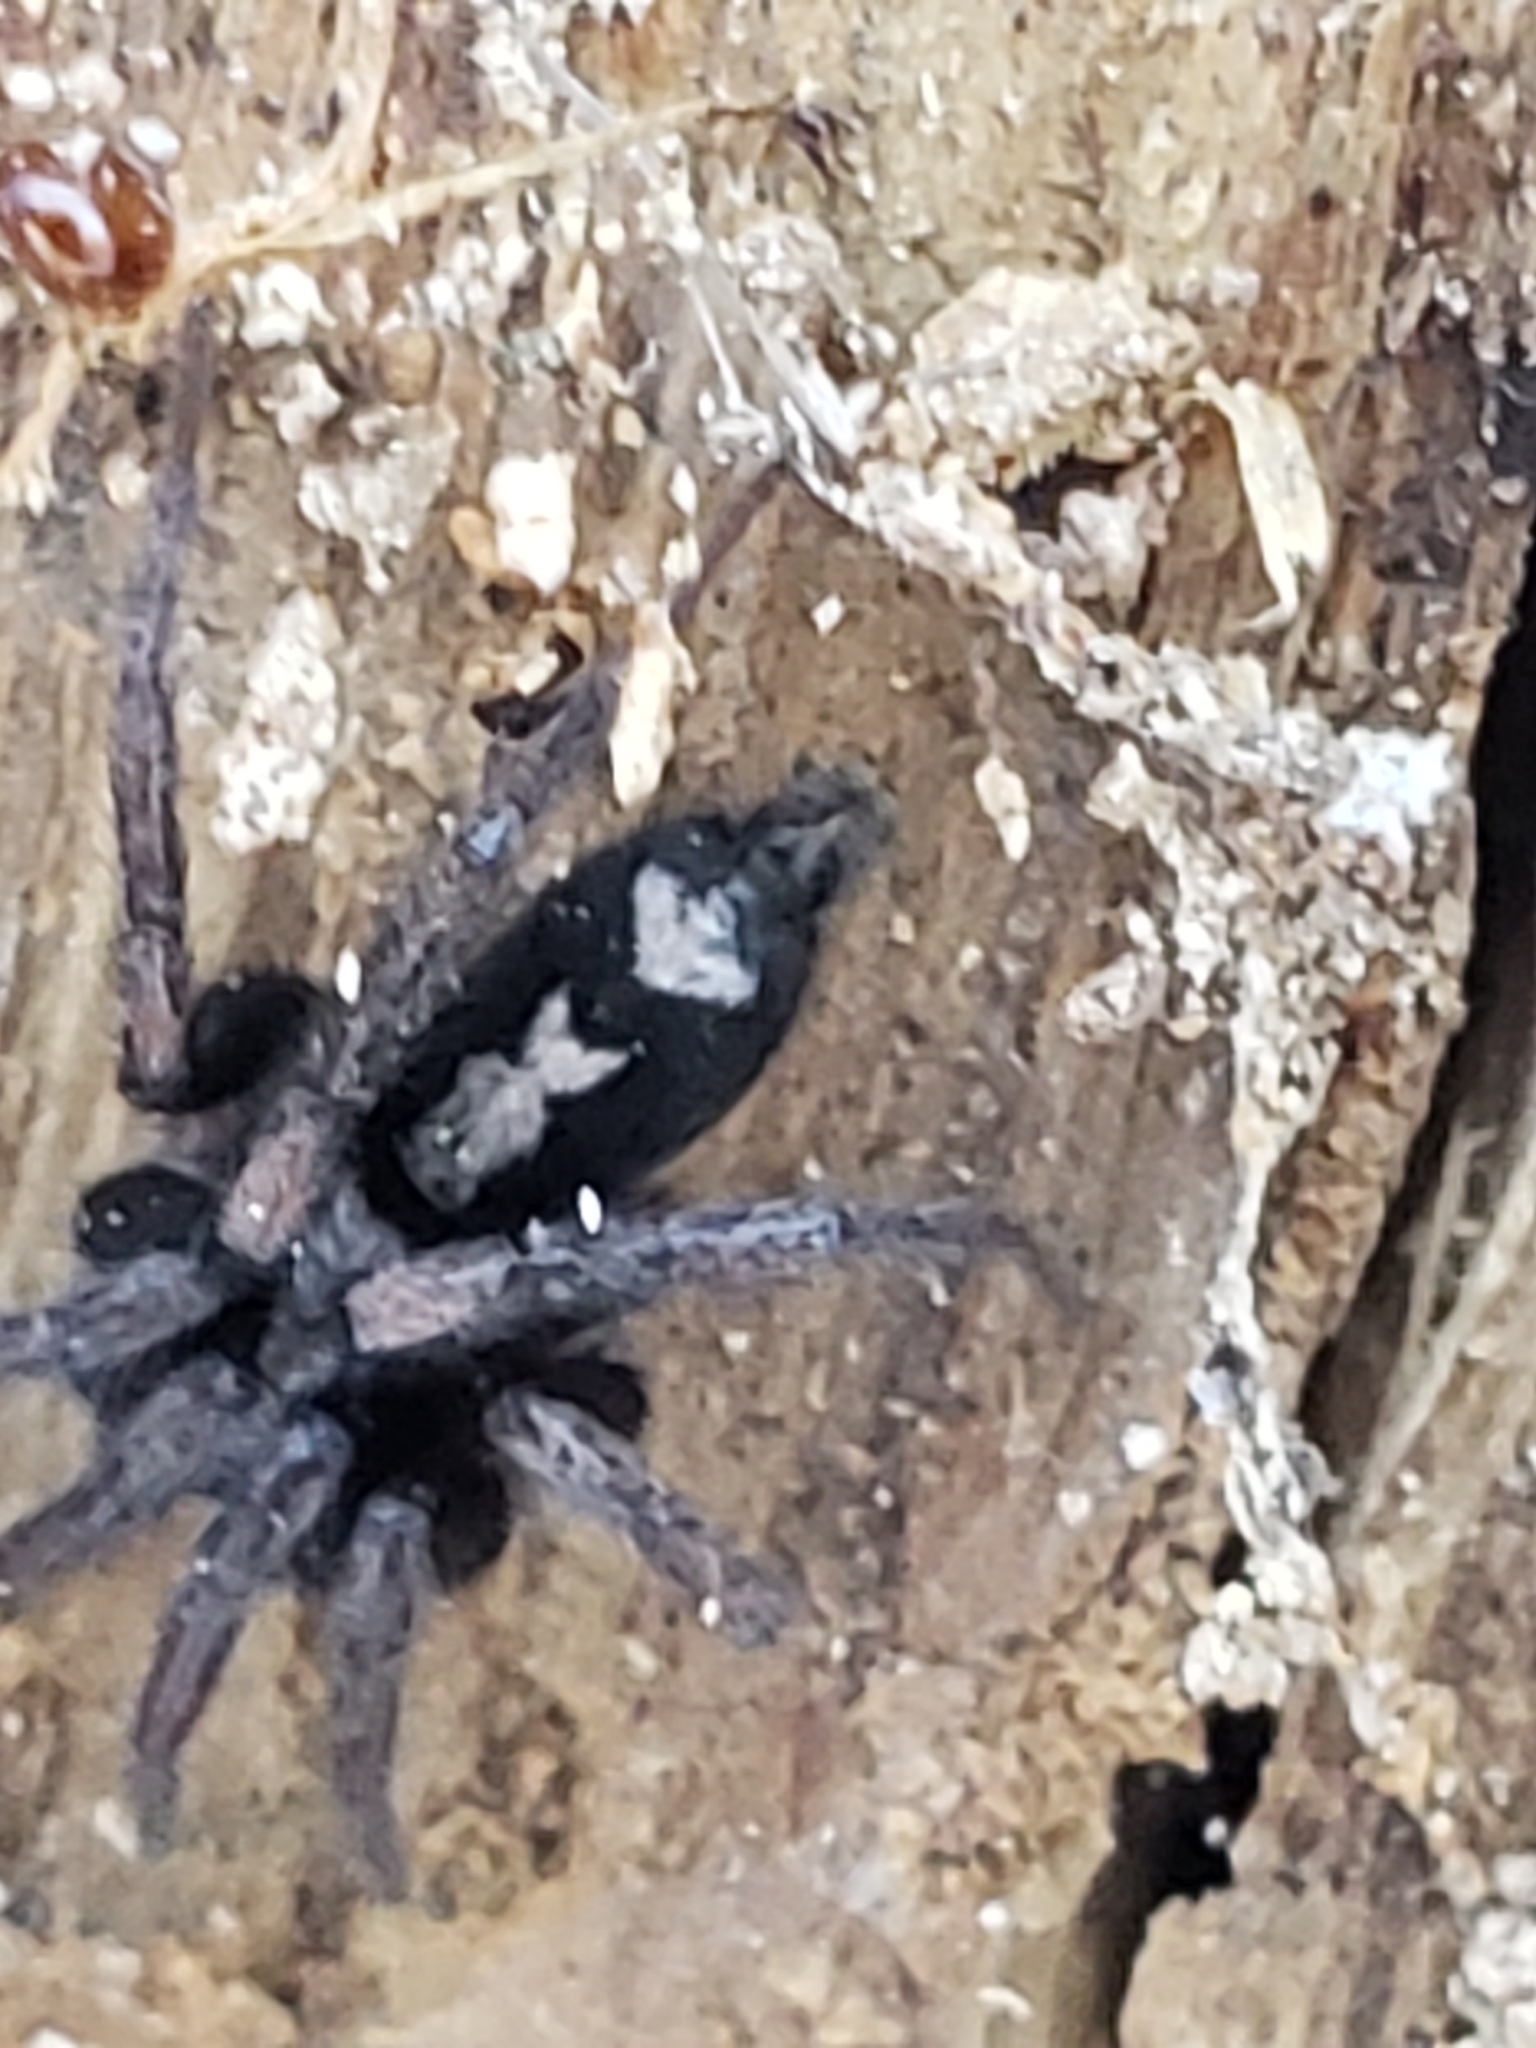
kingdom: Animalia
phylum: Arthropoda
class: Arachnida
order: Araneae
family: Gnaphosidae
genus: Herpyllus
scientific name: Herpyllus ecclesiasticus
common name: Eastern parson spider
